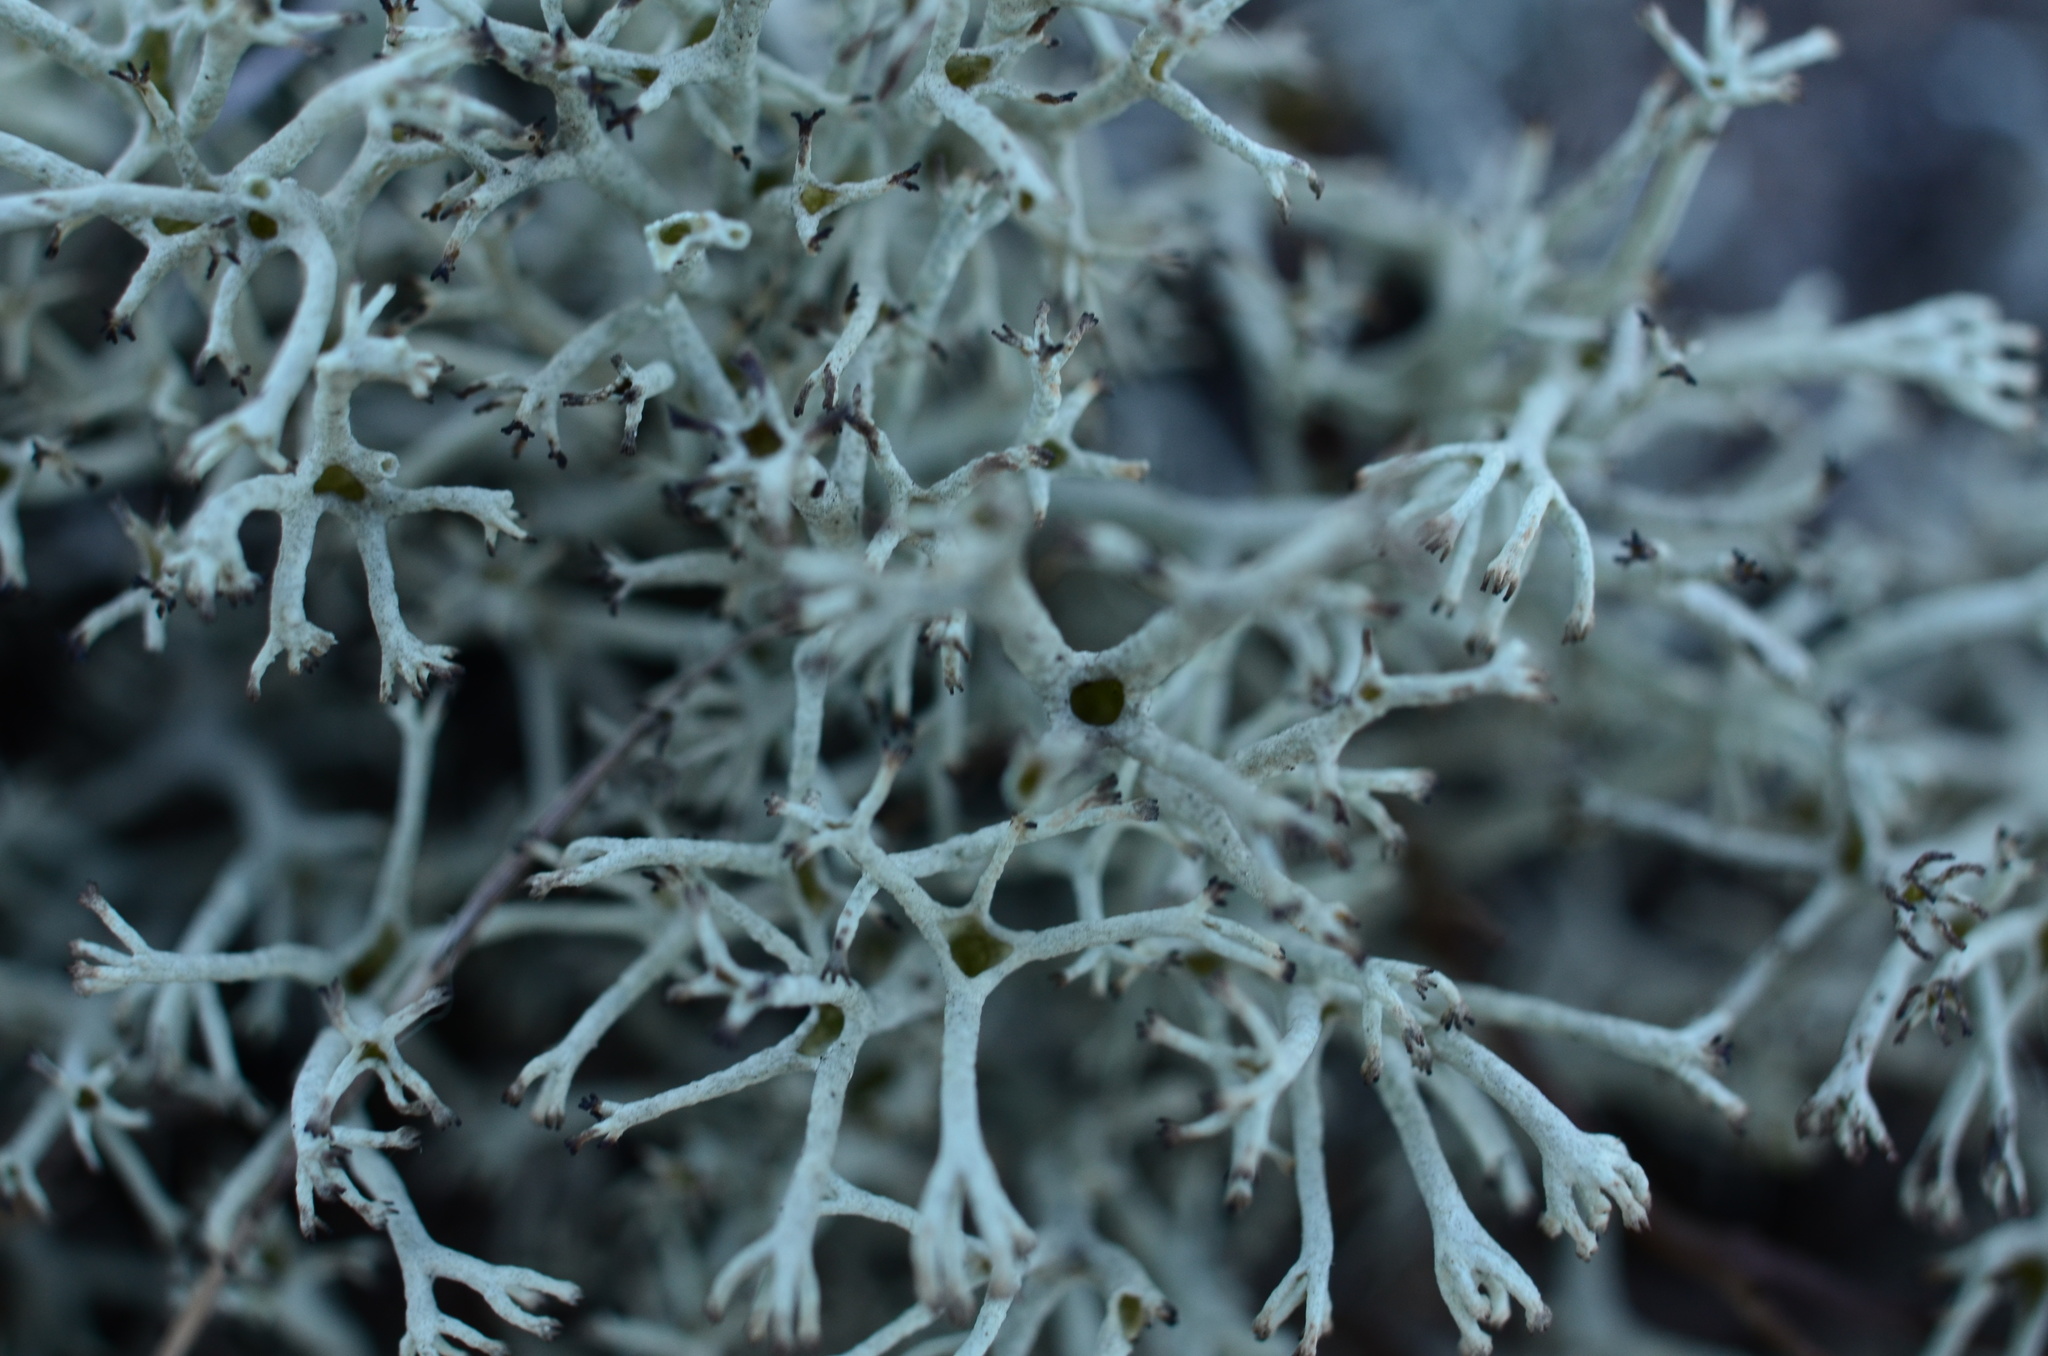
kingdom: Fungi
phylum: Ascomycota
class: Lecanoromycetes
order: Lecanorales
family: Cladoniaceae
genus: Cladonia
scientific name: Cladonia rangiferina
